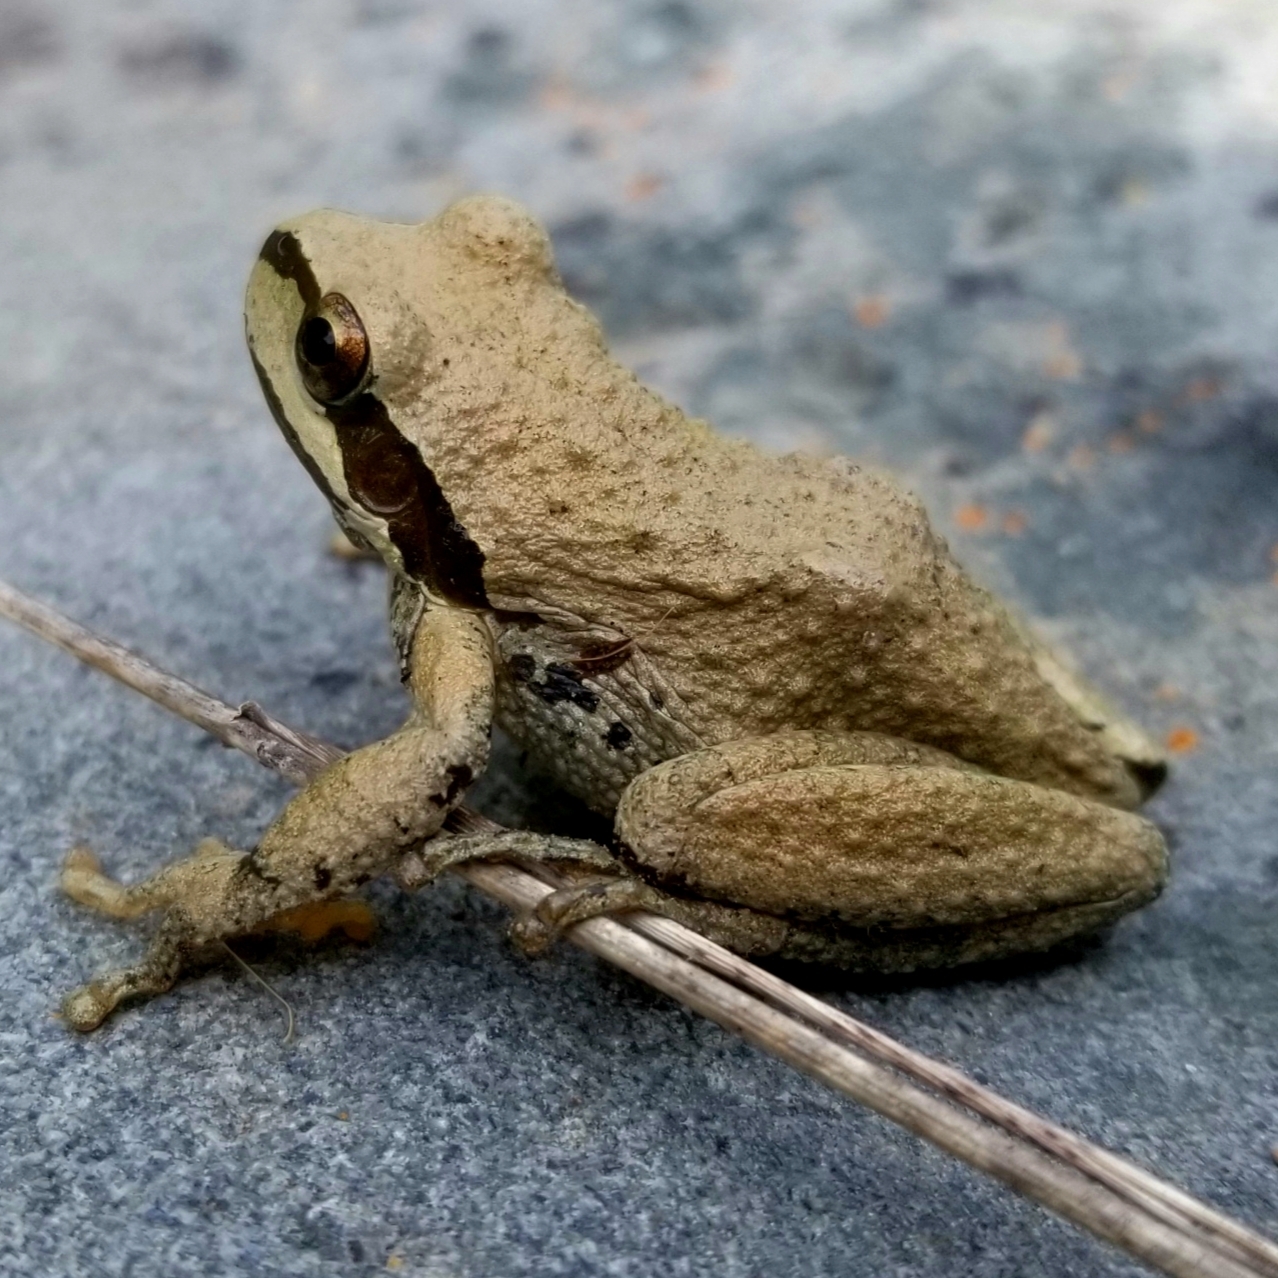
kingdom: Animalia
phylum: Chordata
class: Amphibia
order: Anura
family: Hylidae
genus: Pseudacris
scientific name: Pseudacris regilla
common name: Pacific chorus frog
